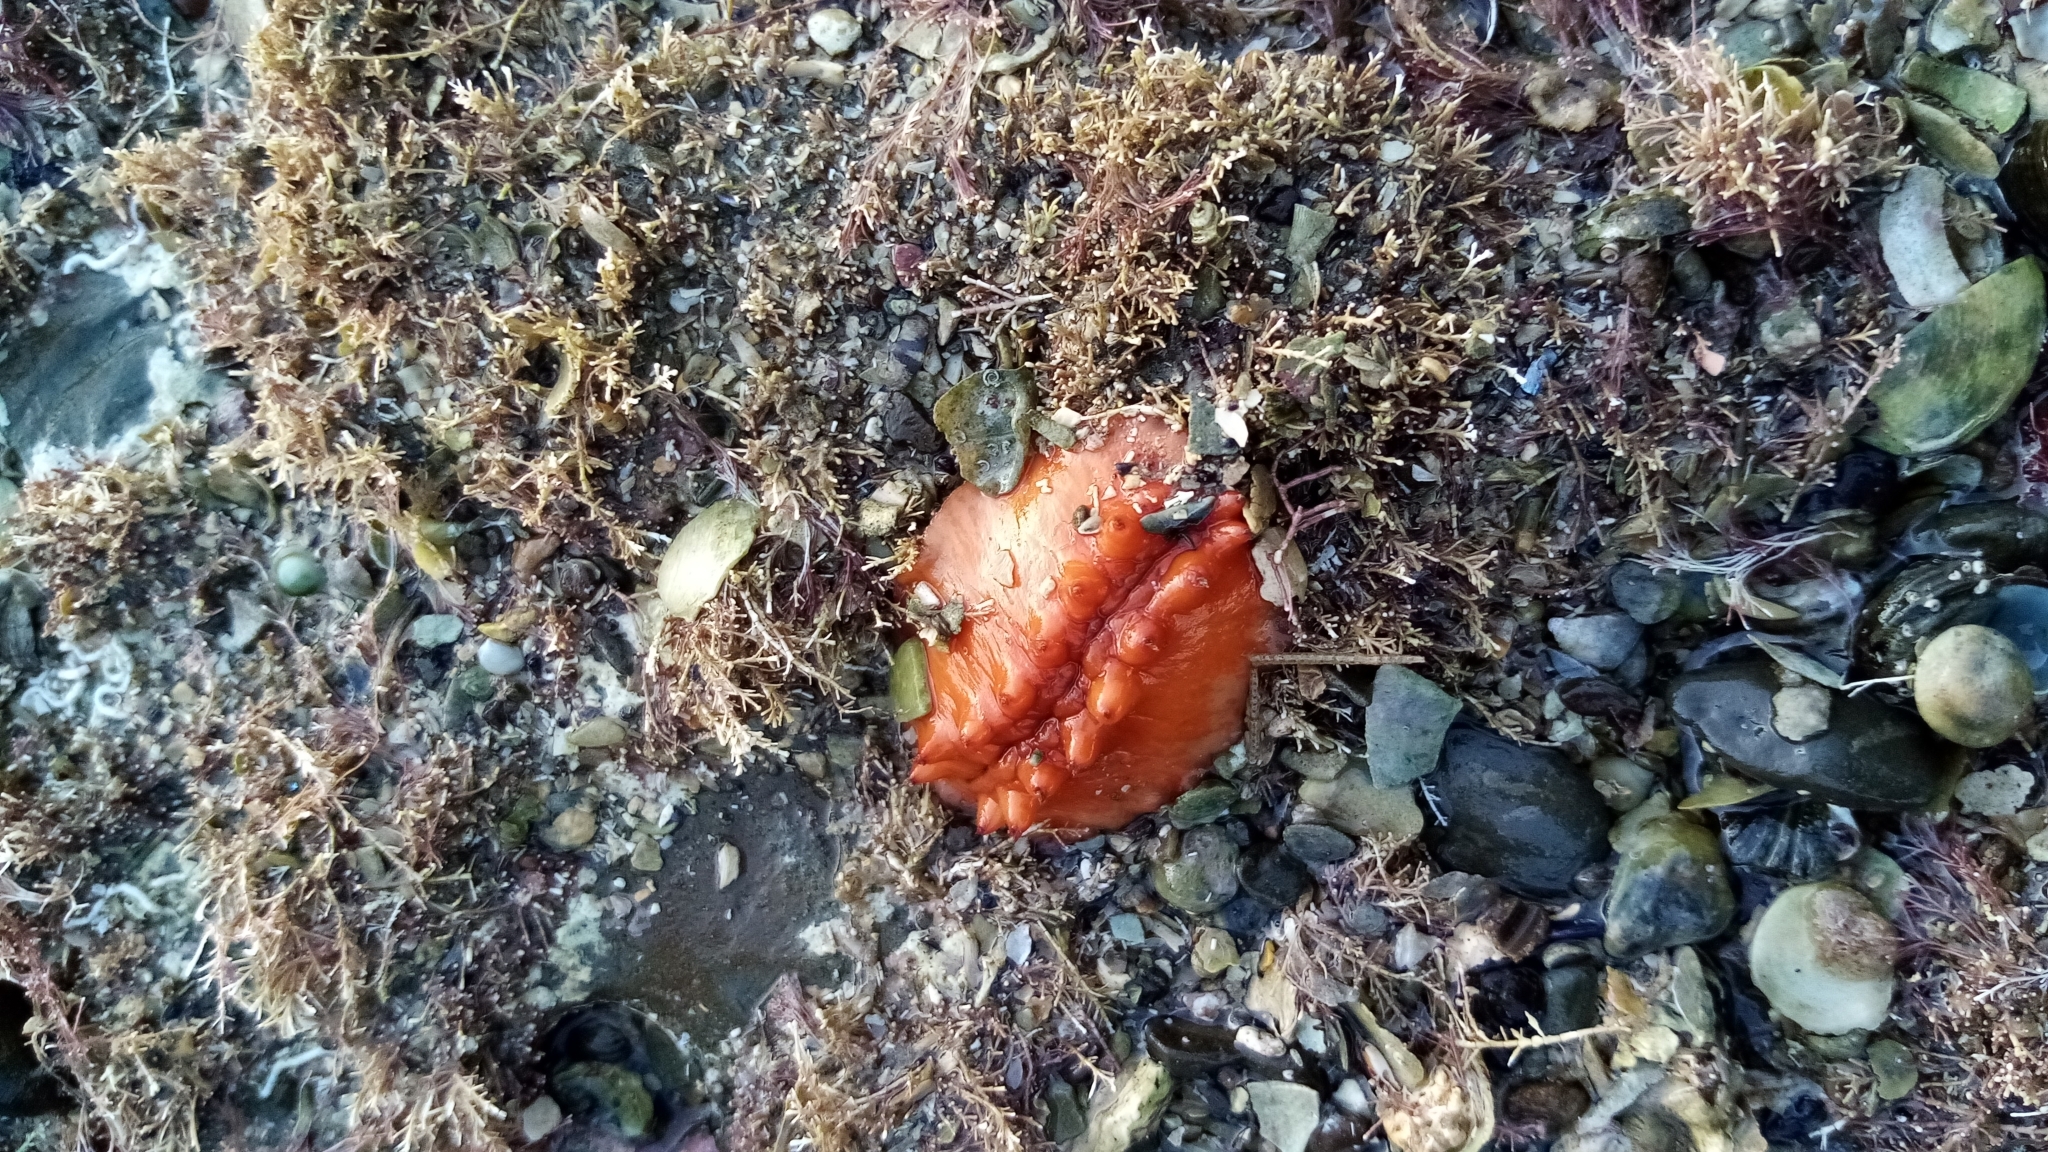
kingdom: Animalia
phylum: Mollusca
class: Polyplacophora
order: Chitonida
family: Acanthochitonidae
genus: Cryptoconchus
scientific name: Cryptoconchus porosus
